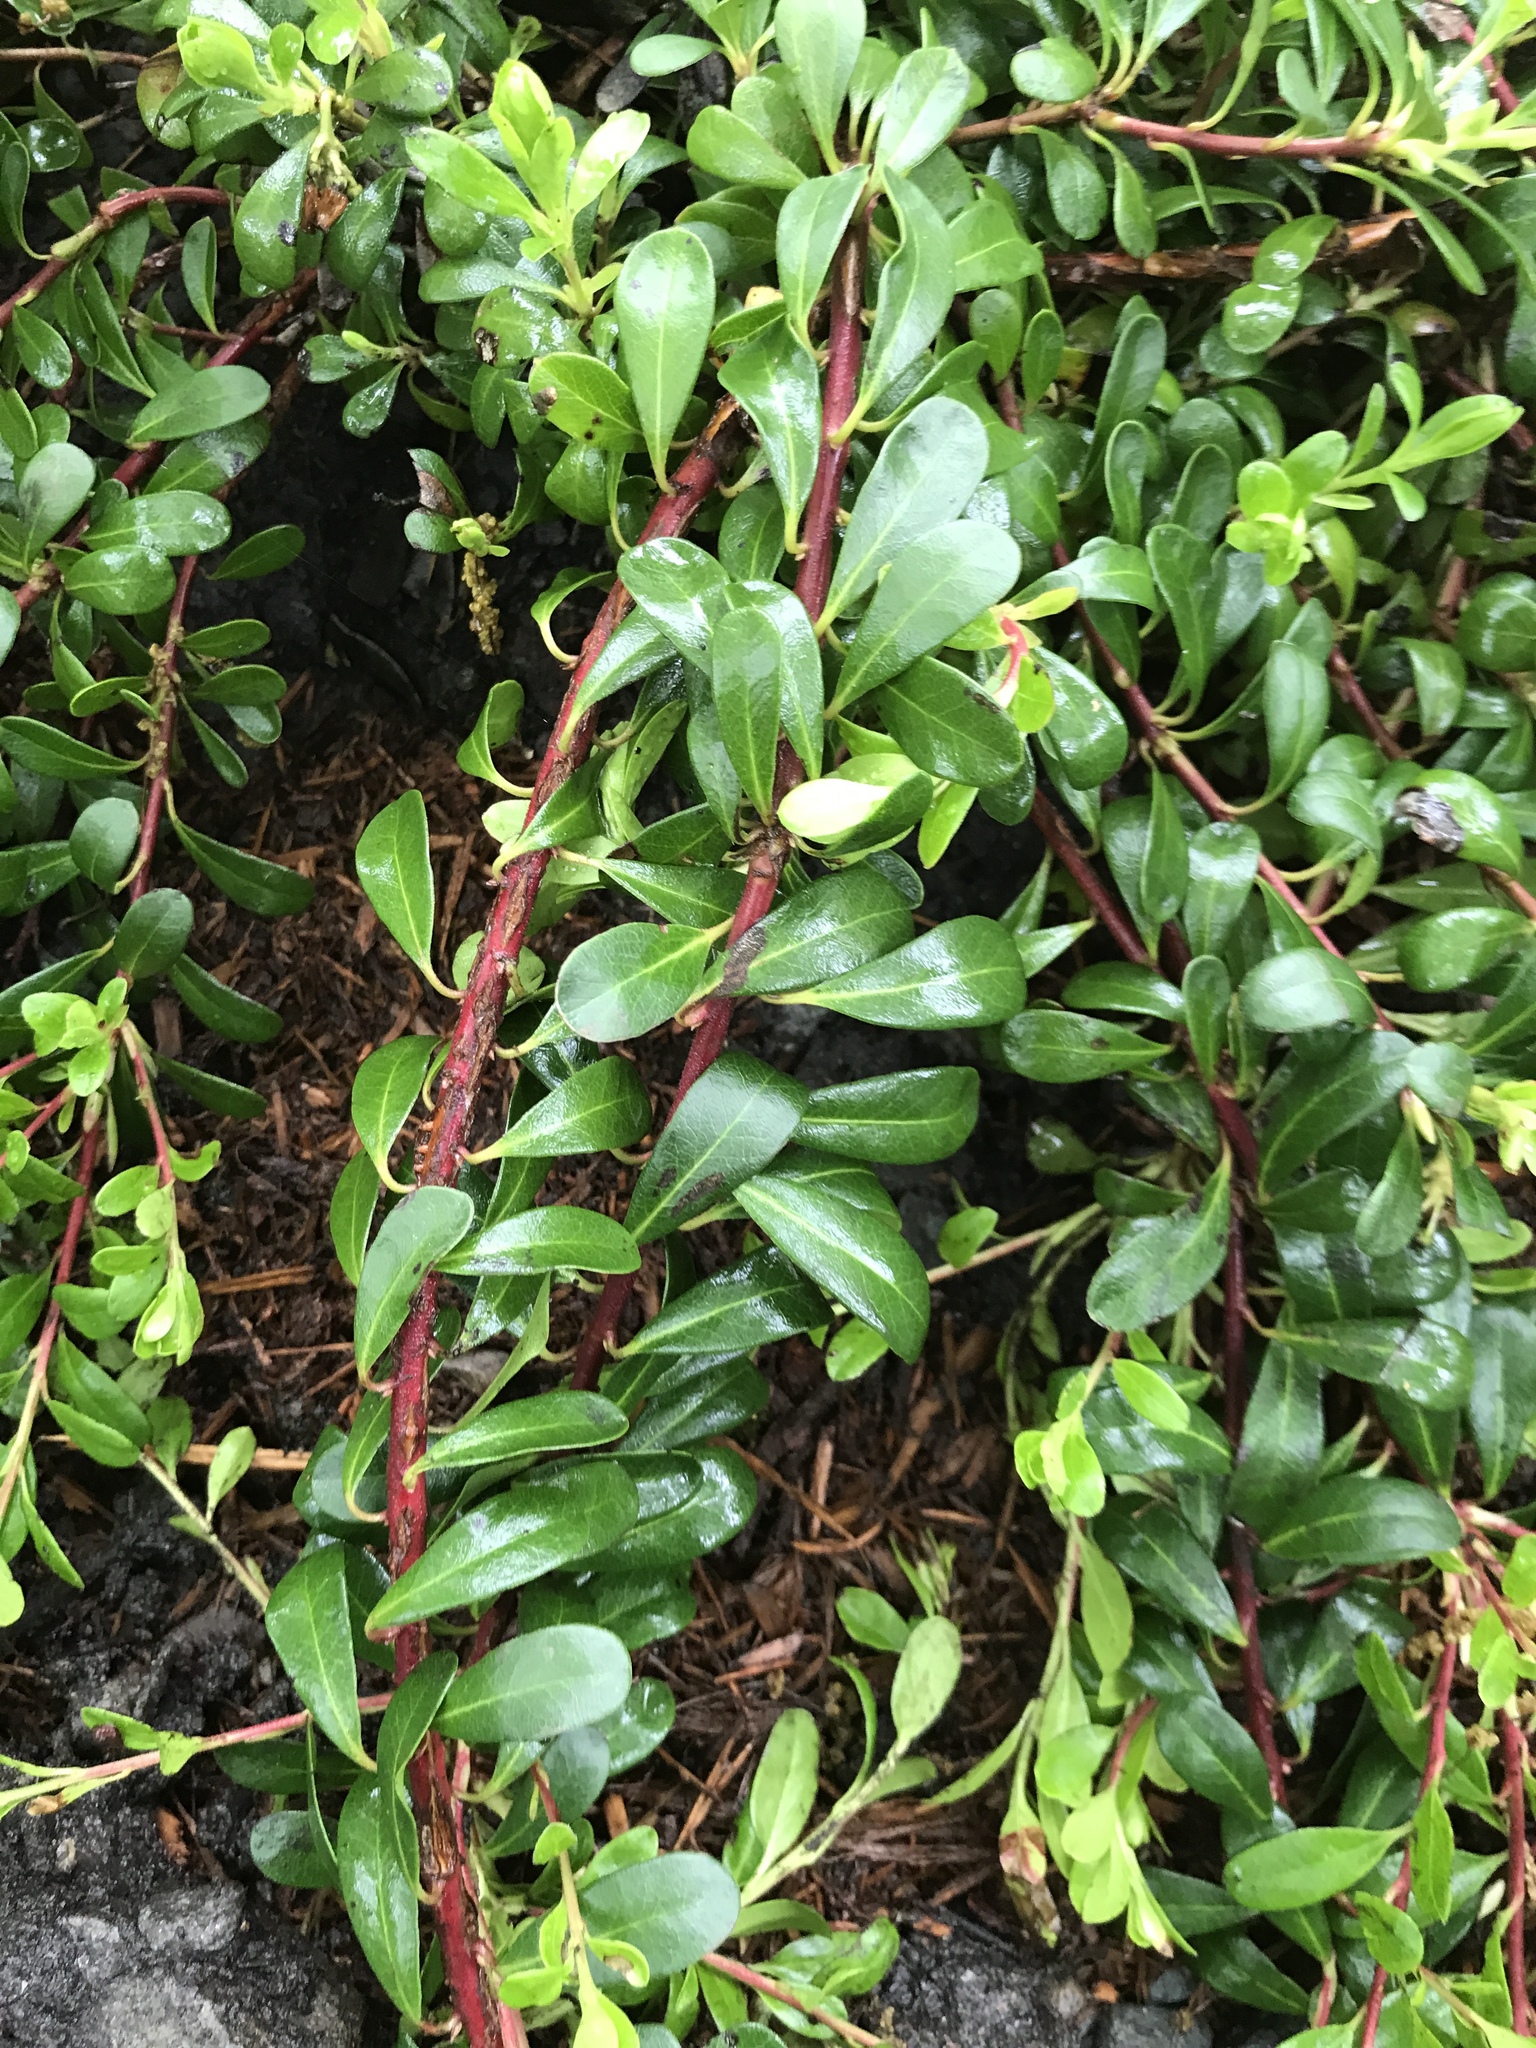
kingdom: Plantae
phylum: Tracheophyta
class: Magnoliopsida
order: Ericales
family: Ericaceae
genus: Arctostaphylos
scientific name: Arctostaphylos uva-ursi
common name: Bearberry
